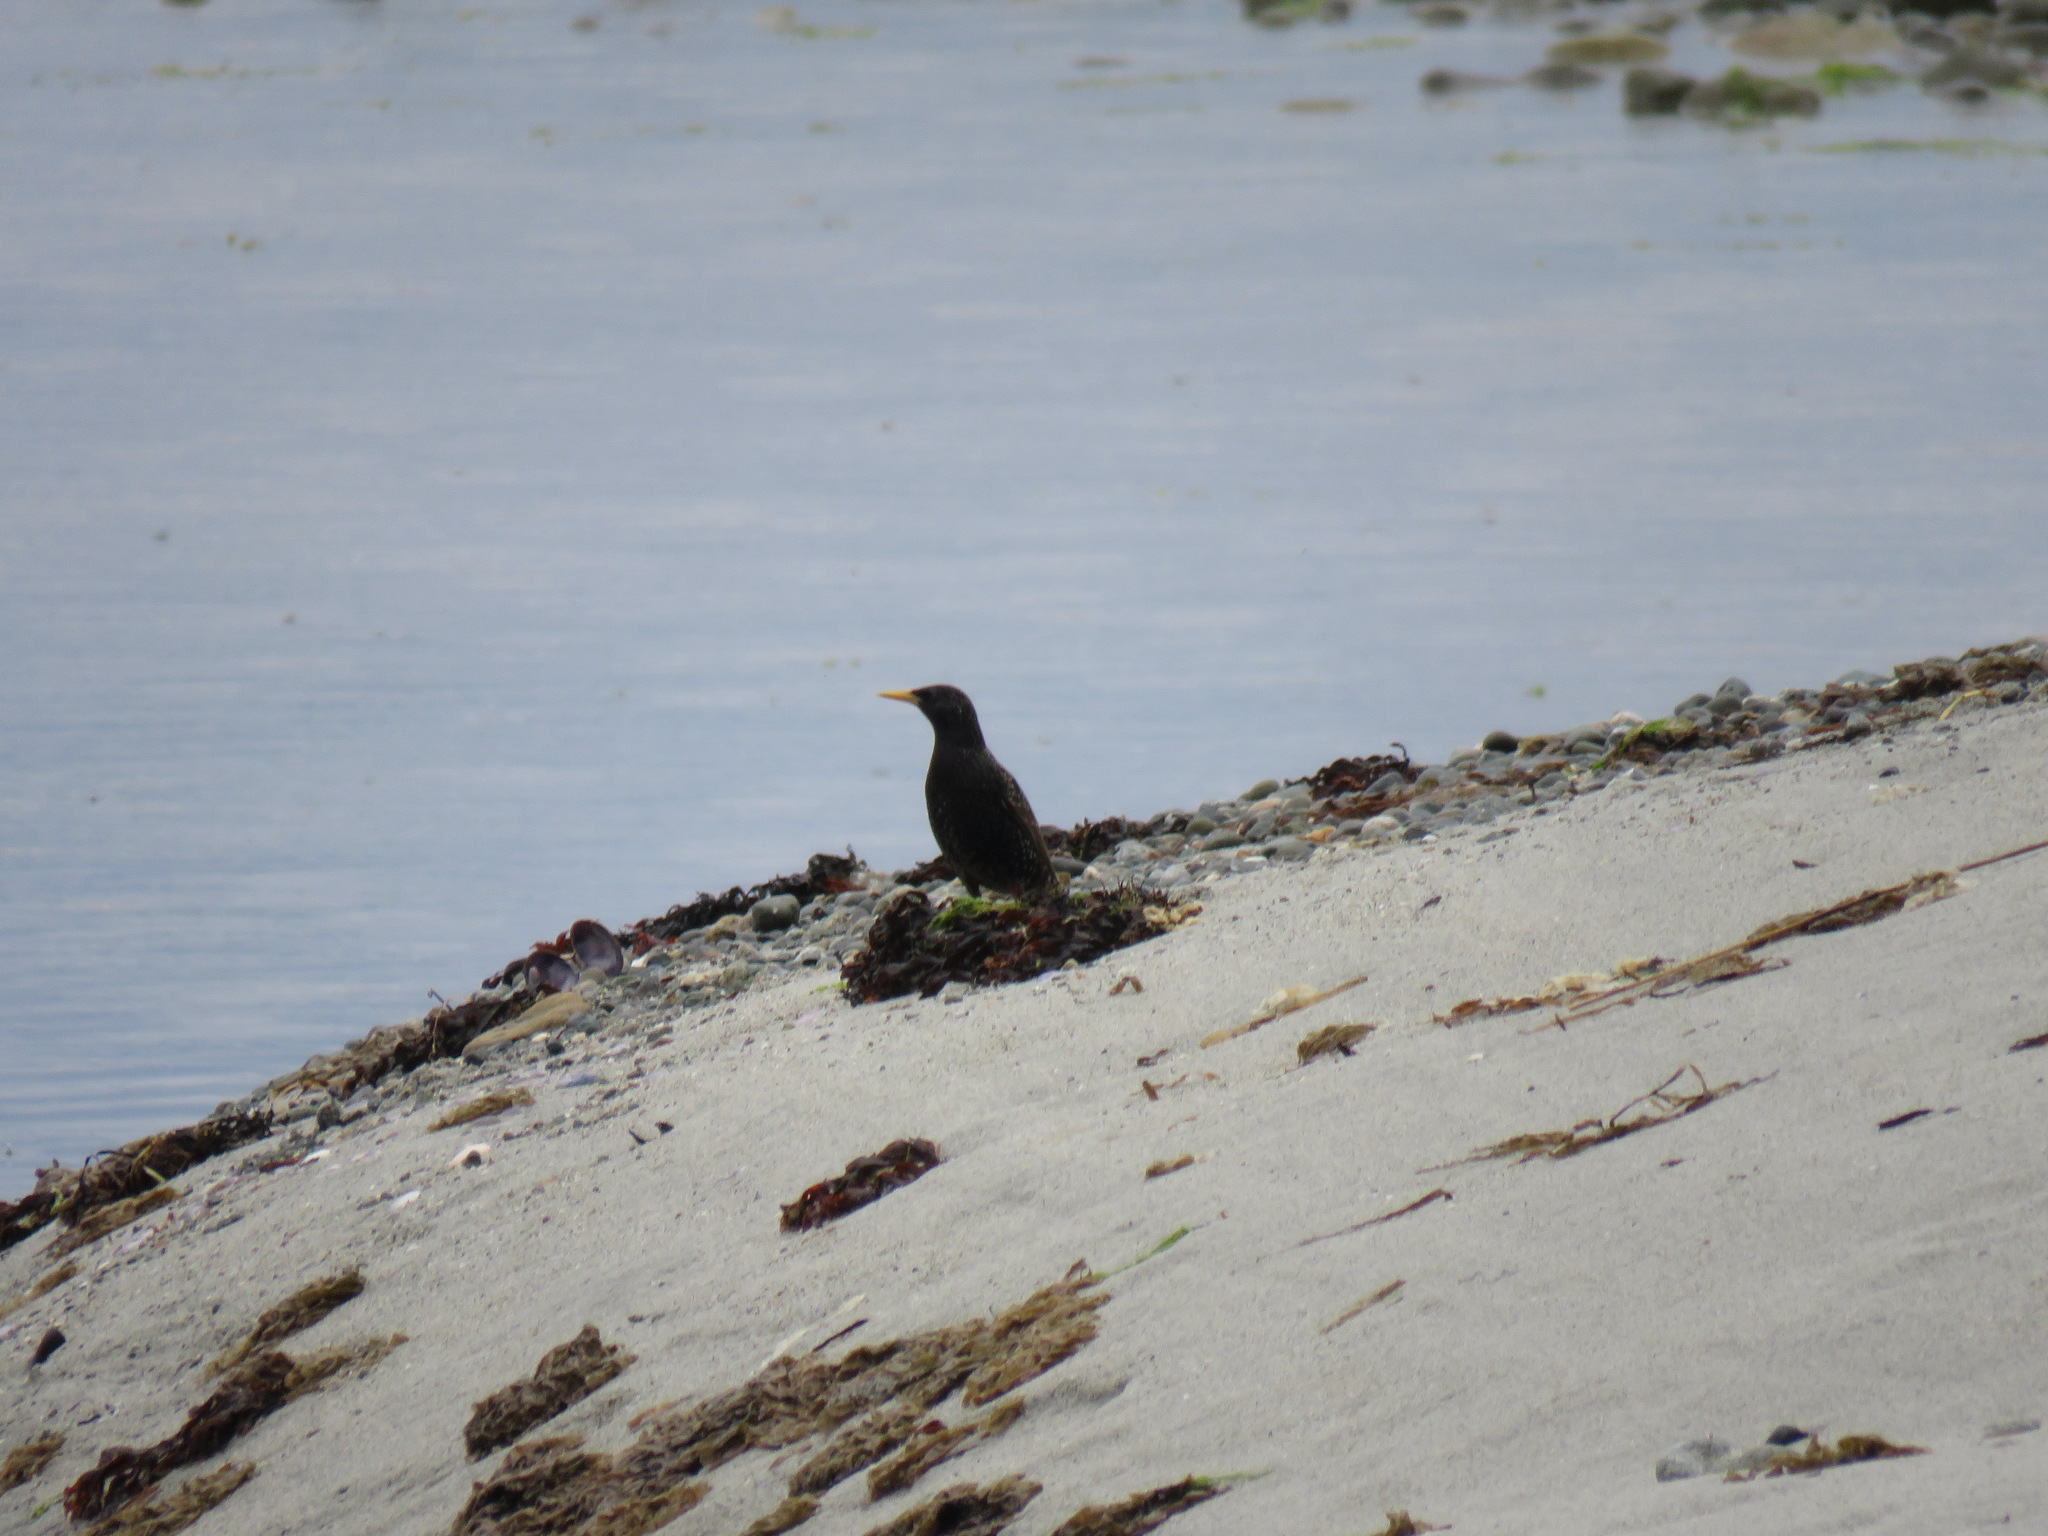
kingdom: Animalia
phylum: Chordata
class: Aves
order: Passeriformes
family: Sturnidae
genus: Sturnus
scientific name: Sturnus vulgaris
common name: Common starling
